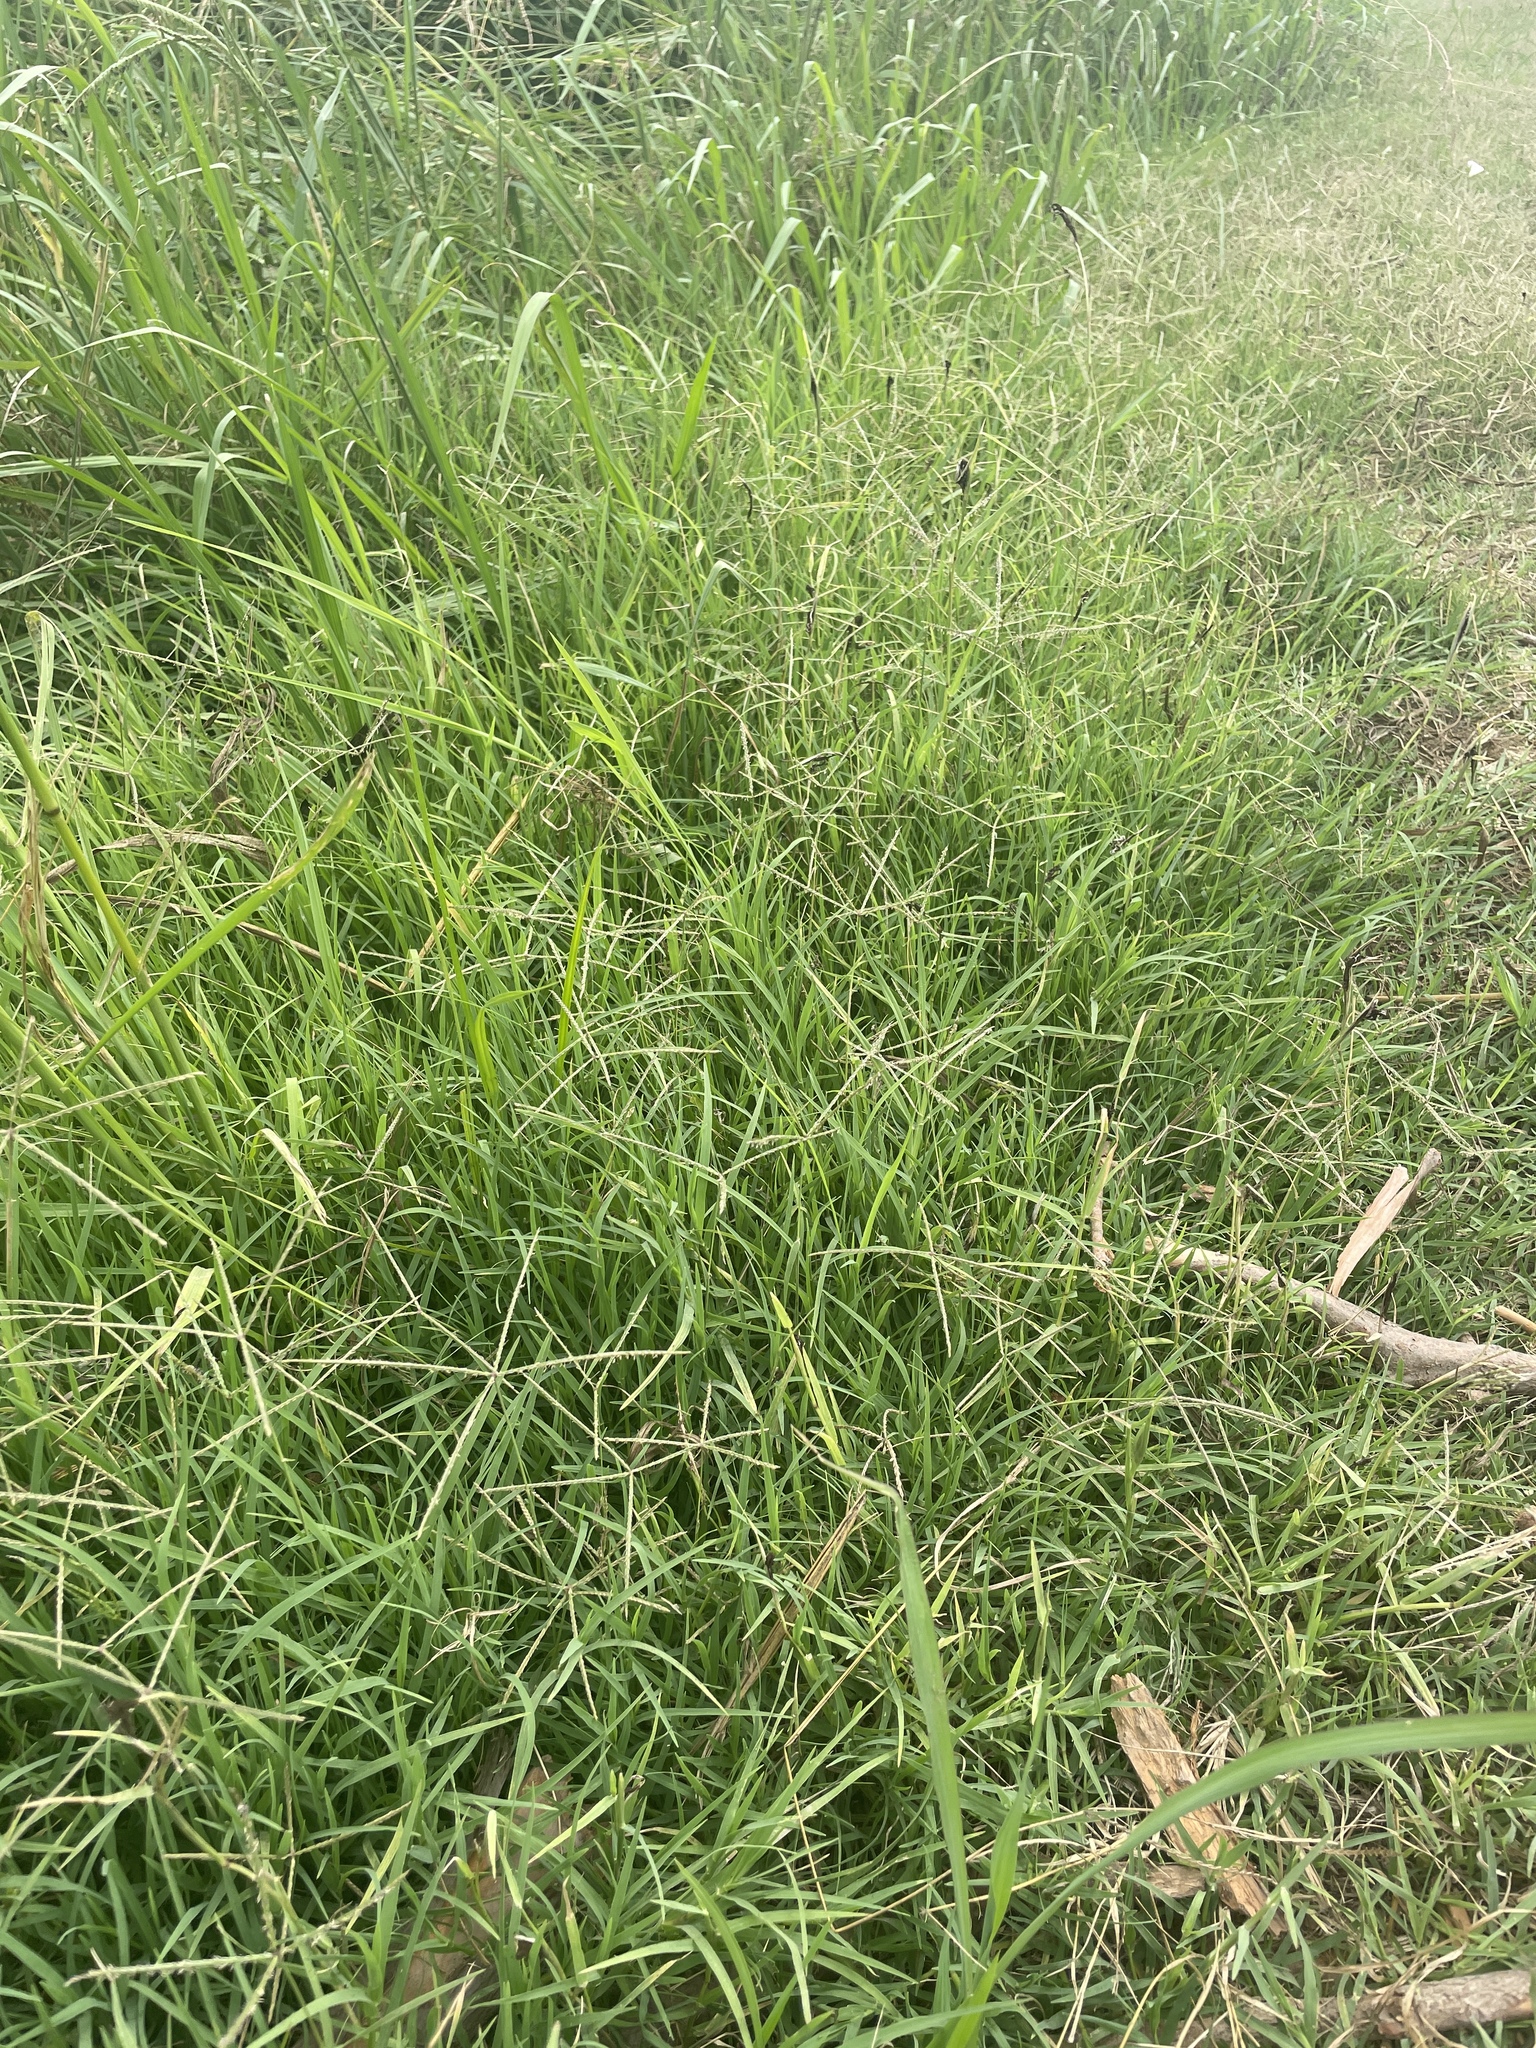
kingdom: Fungi
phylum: Basidiomycota
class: Ustilaginomycetes
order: Ustilaginales
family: Ustilaginaceae
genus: Ustilago
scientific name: Ustilago cynodontis
